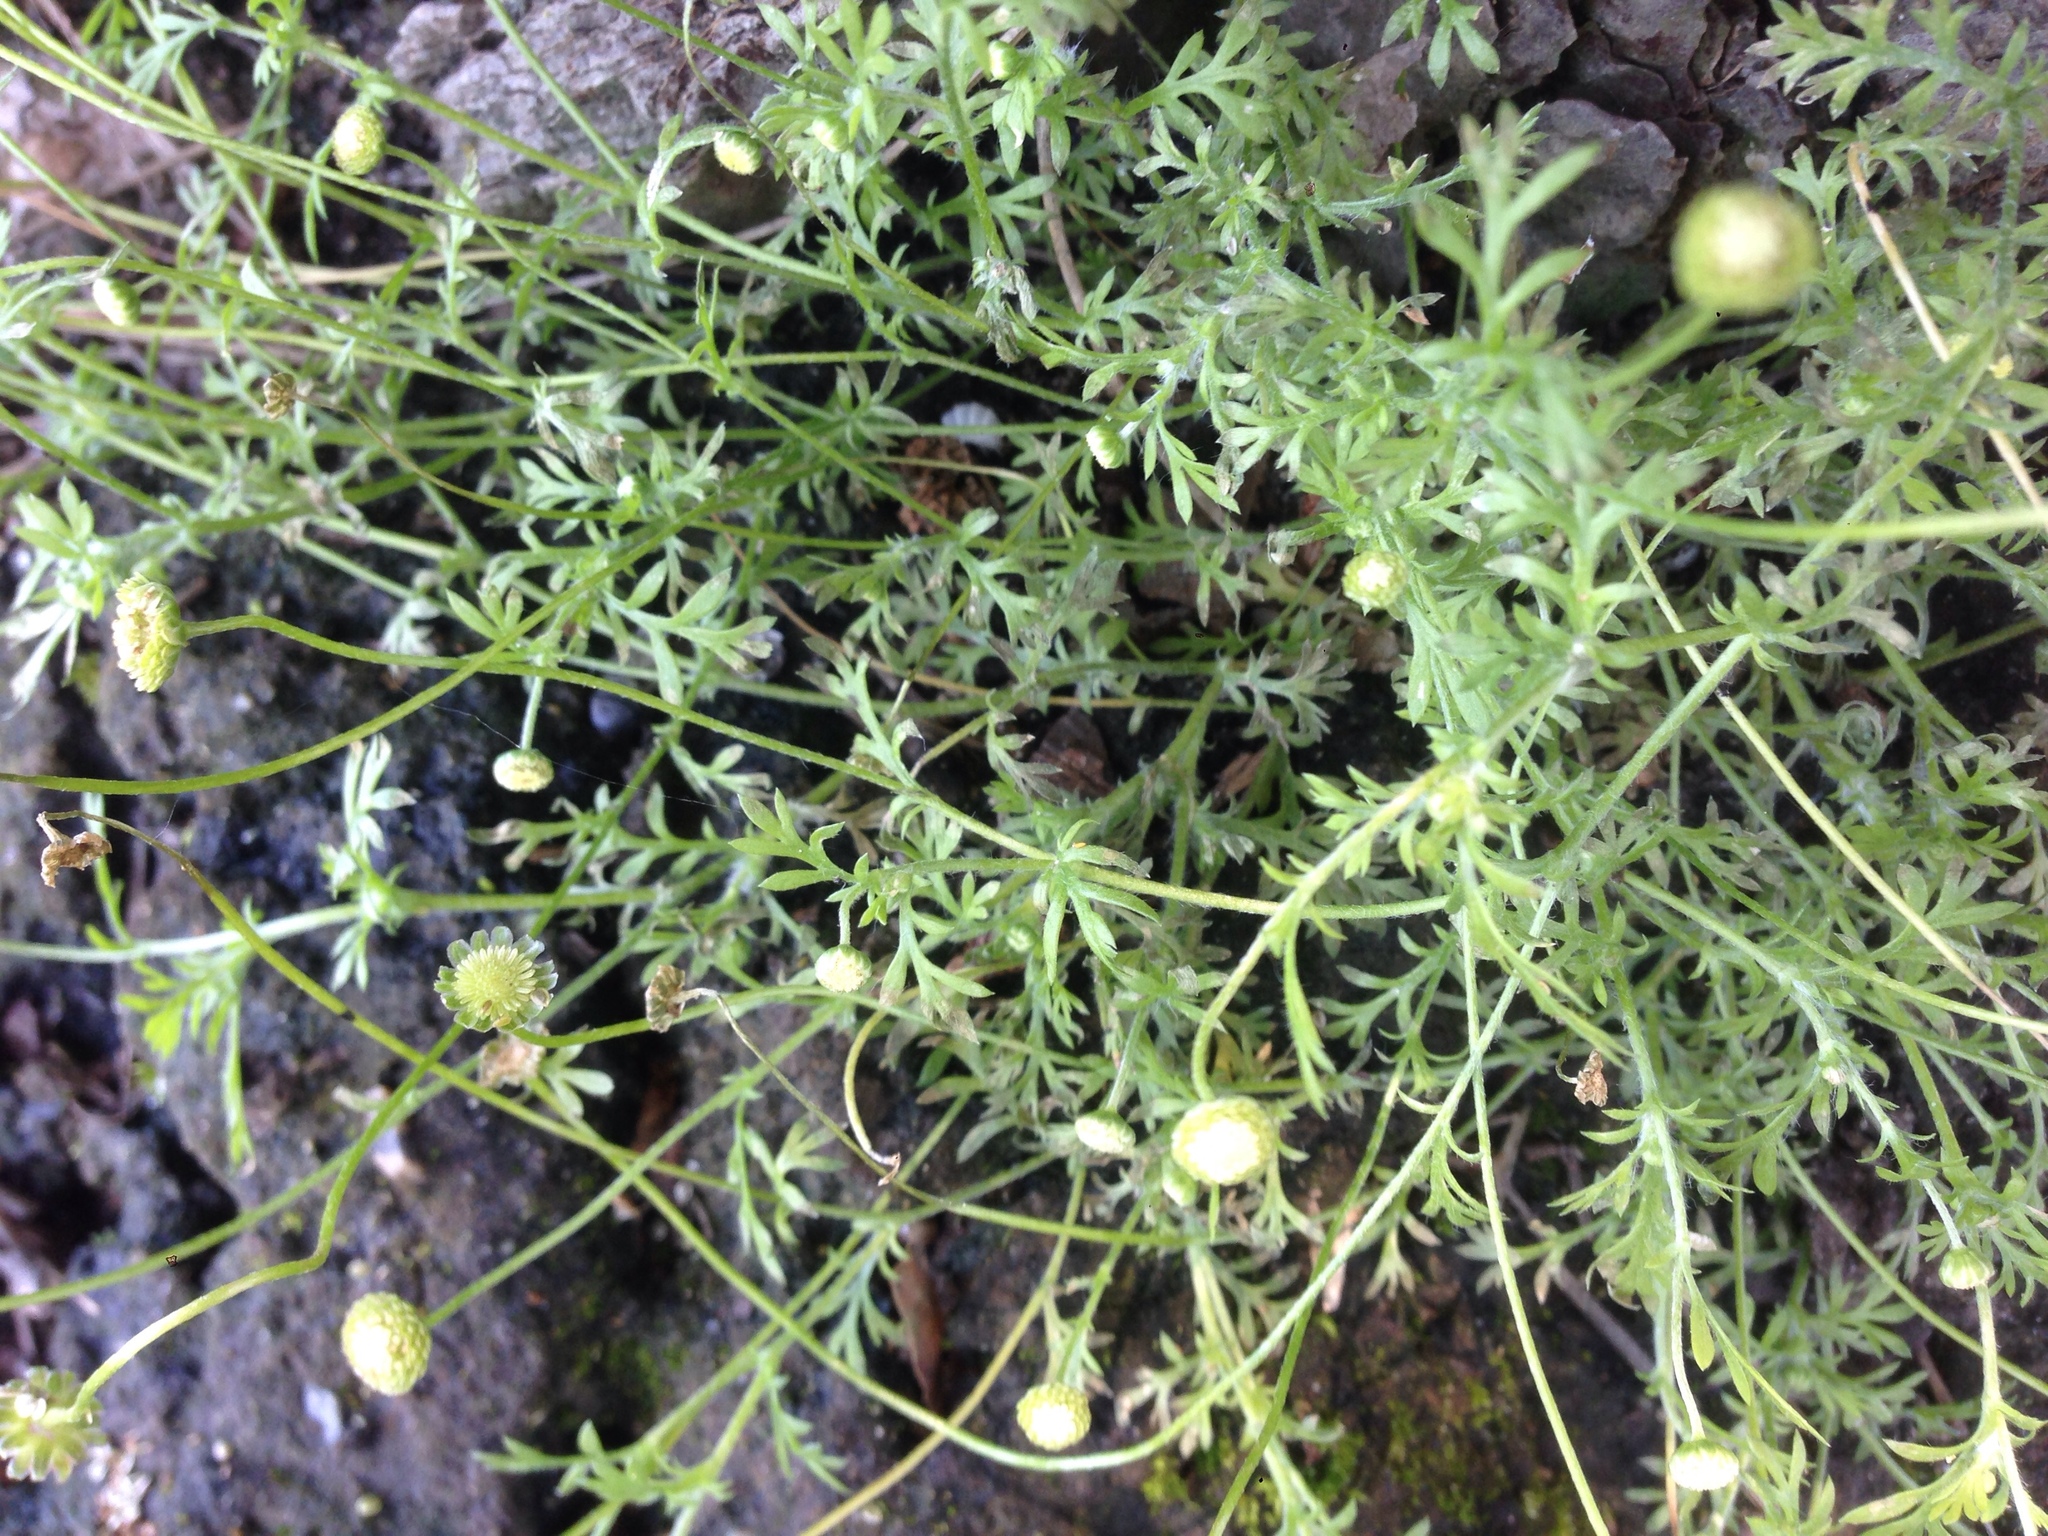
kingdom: Plantae
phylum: Tracheophyta
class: Magnoliopsida
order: Asterales
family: Asteraceae
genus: Cotula
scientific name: Cotula australis
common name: Australian waterbuttons
